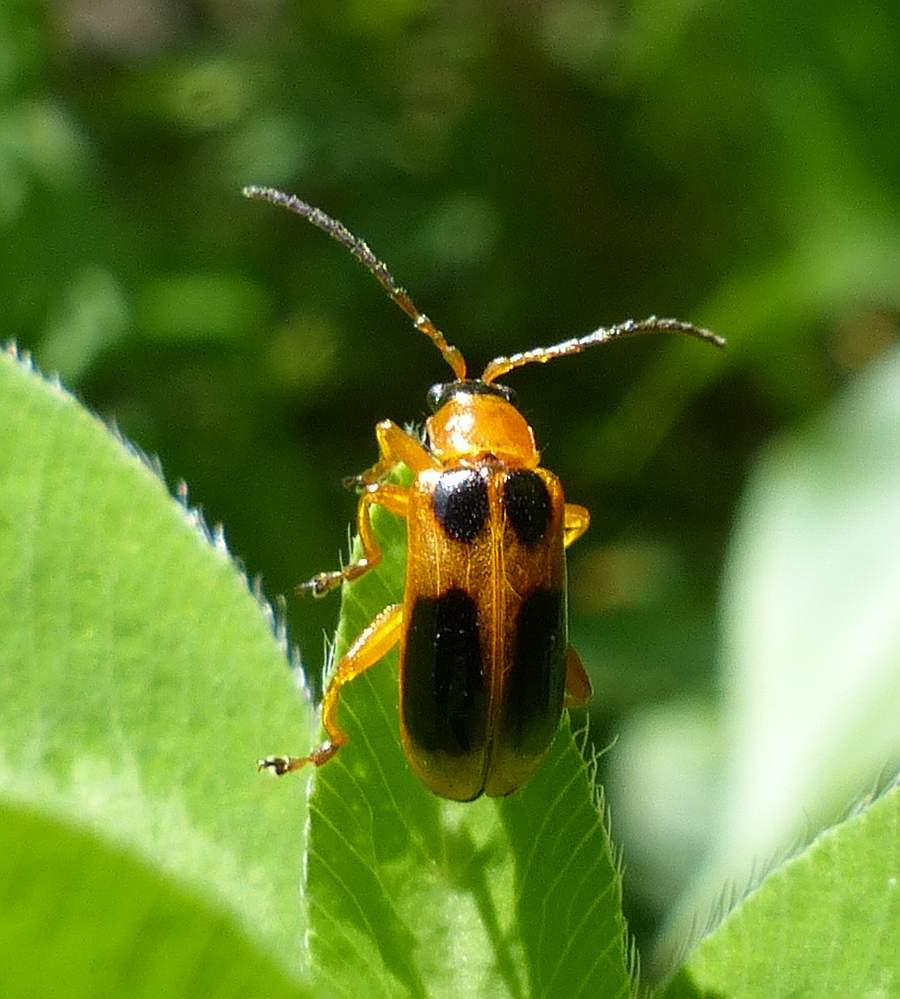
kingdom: Animalia
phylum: Arthropoda
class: Insecta
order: Coleoptera
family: Chrysomelidae
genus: Phyllobrotica
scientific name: Phyllobrotica decorata
